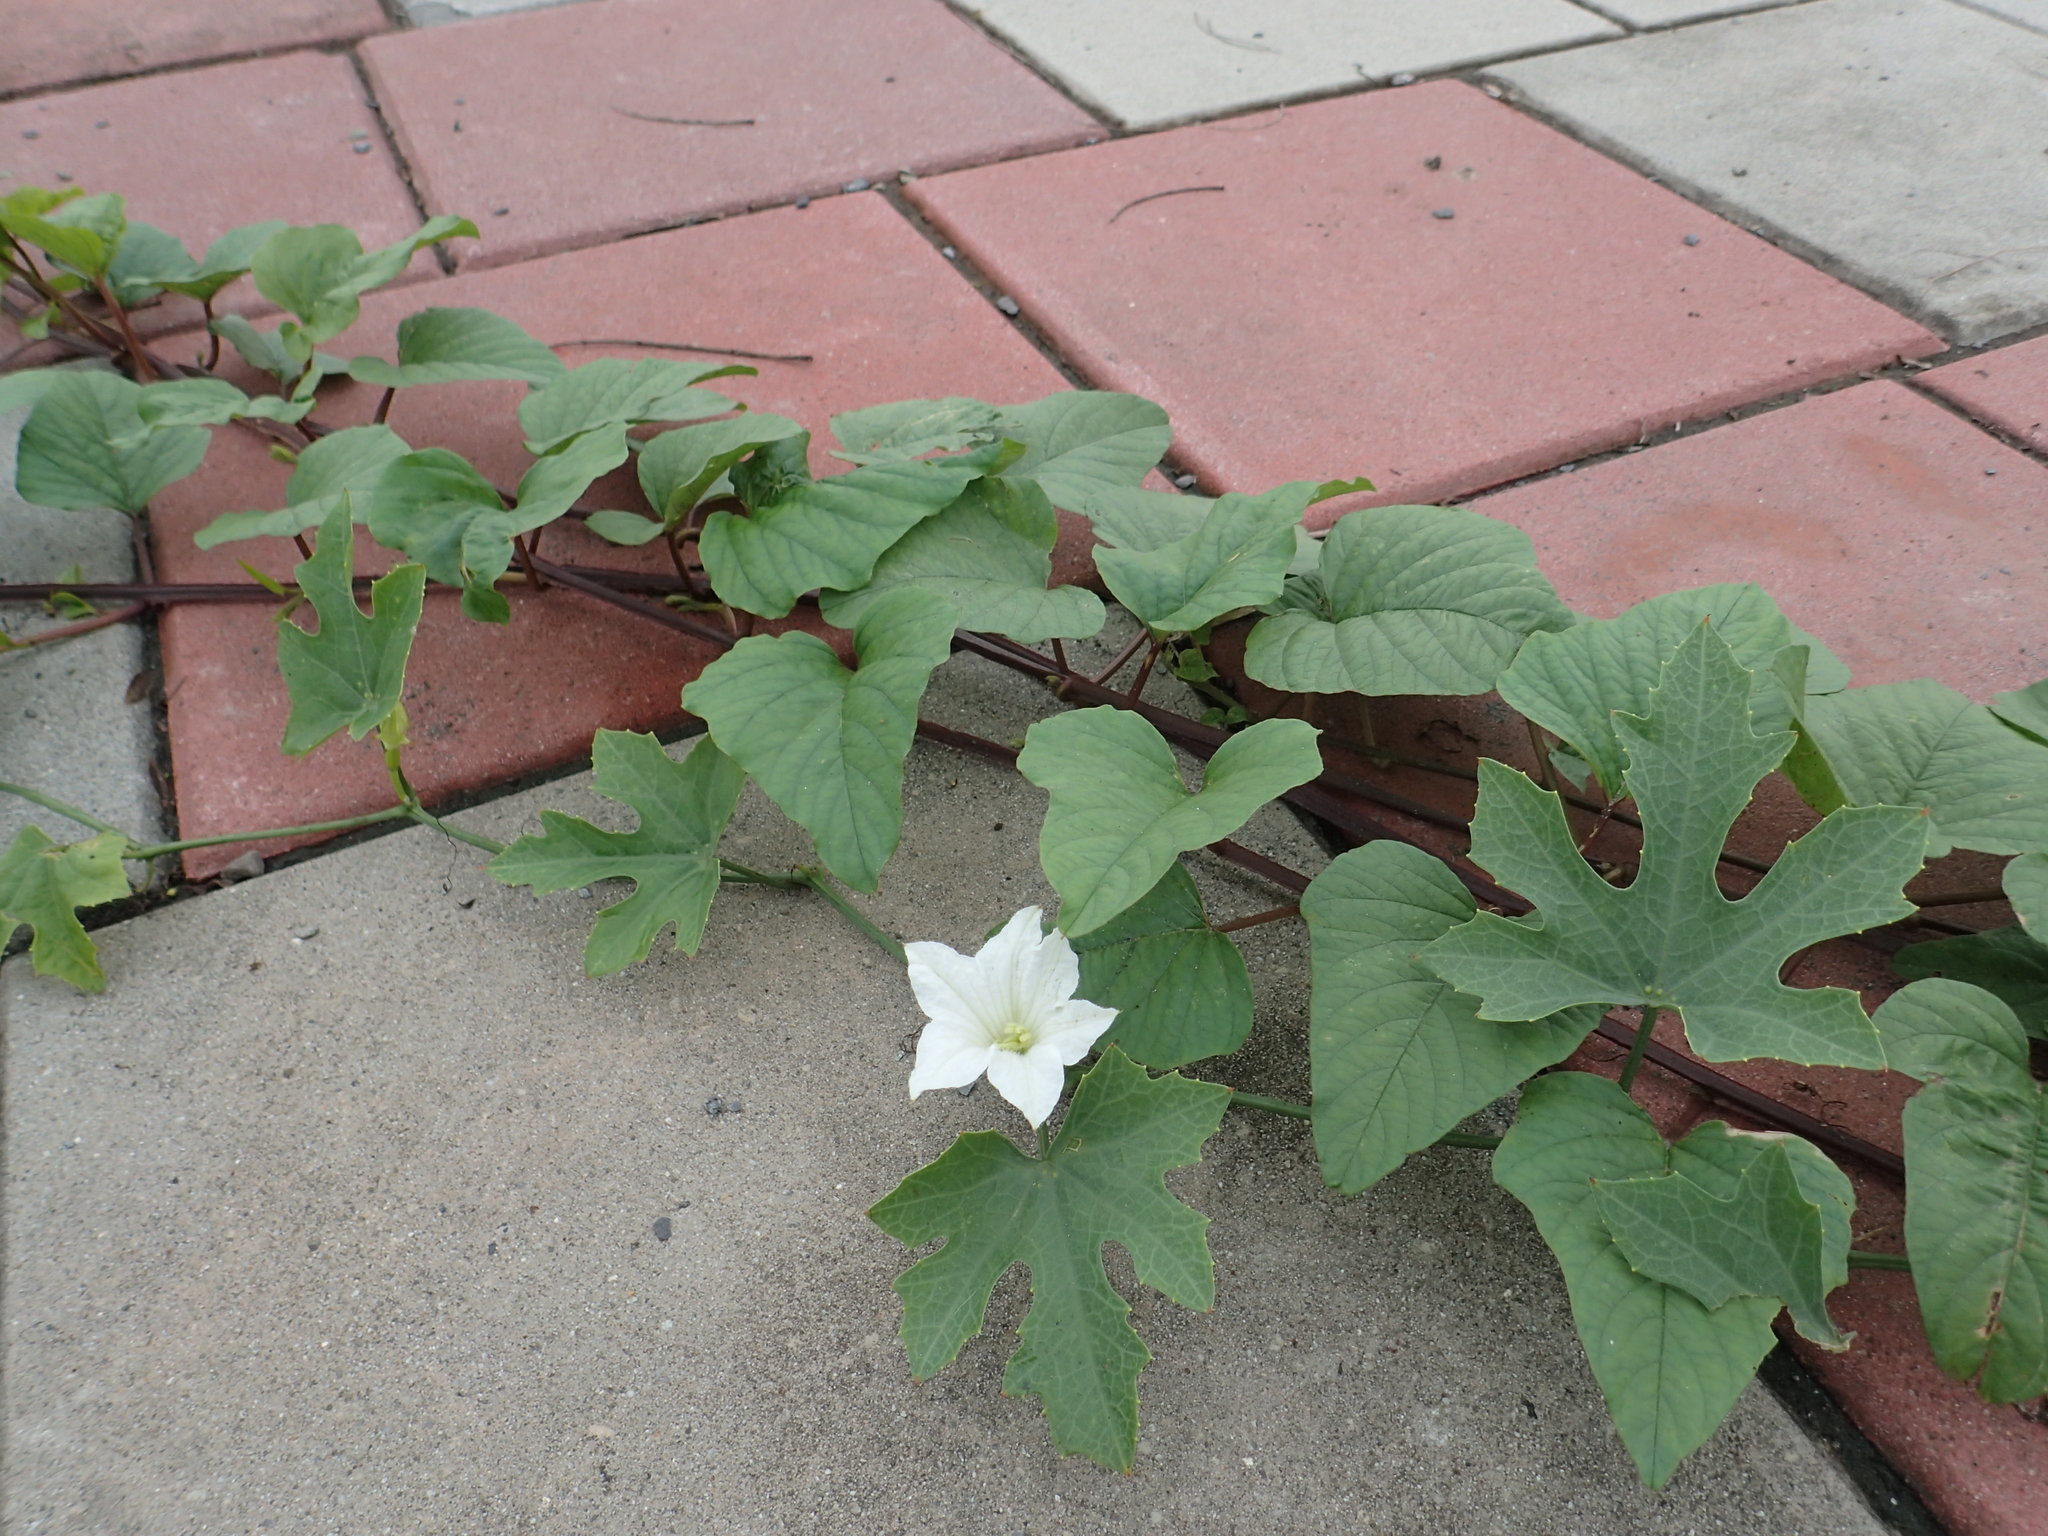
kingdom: Plantae
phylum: Tracheophyta
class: Magnoliopsida
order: Cucurbitales
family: Cucurbitaceae
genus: Coccinia
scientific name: Coccinia grandis
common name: Ivy gourd
